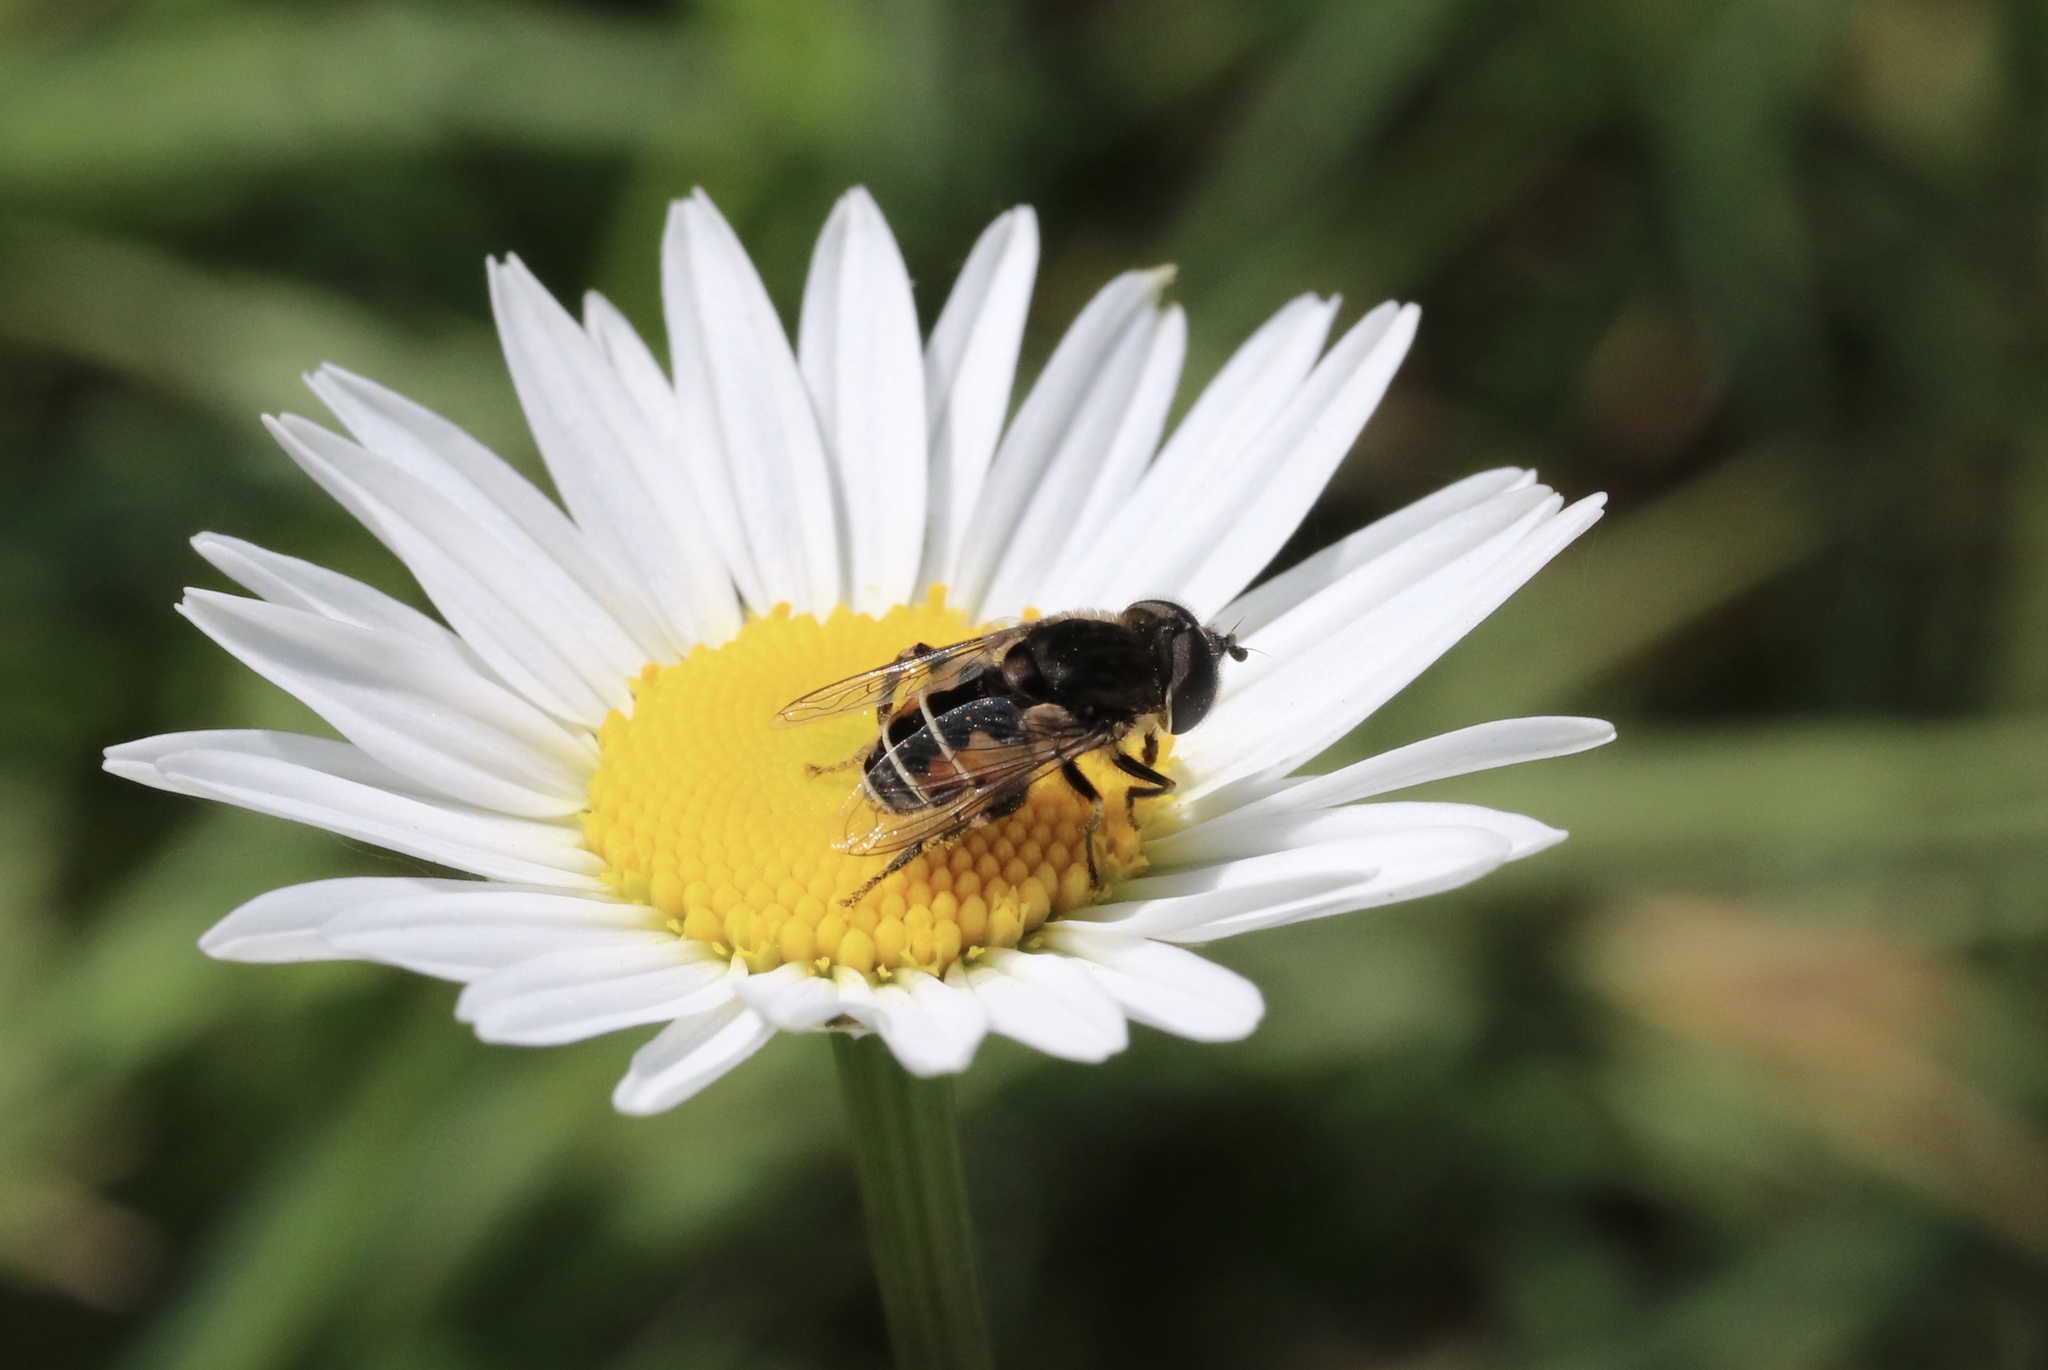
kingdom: Animalia
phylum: Arthropoda
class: Insecta
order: Diptera
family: Syrphidae
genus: Palpada
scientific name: Palpada meigenii
